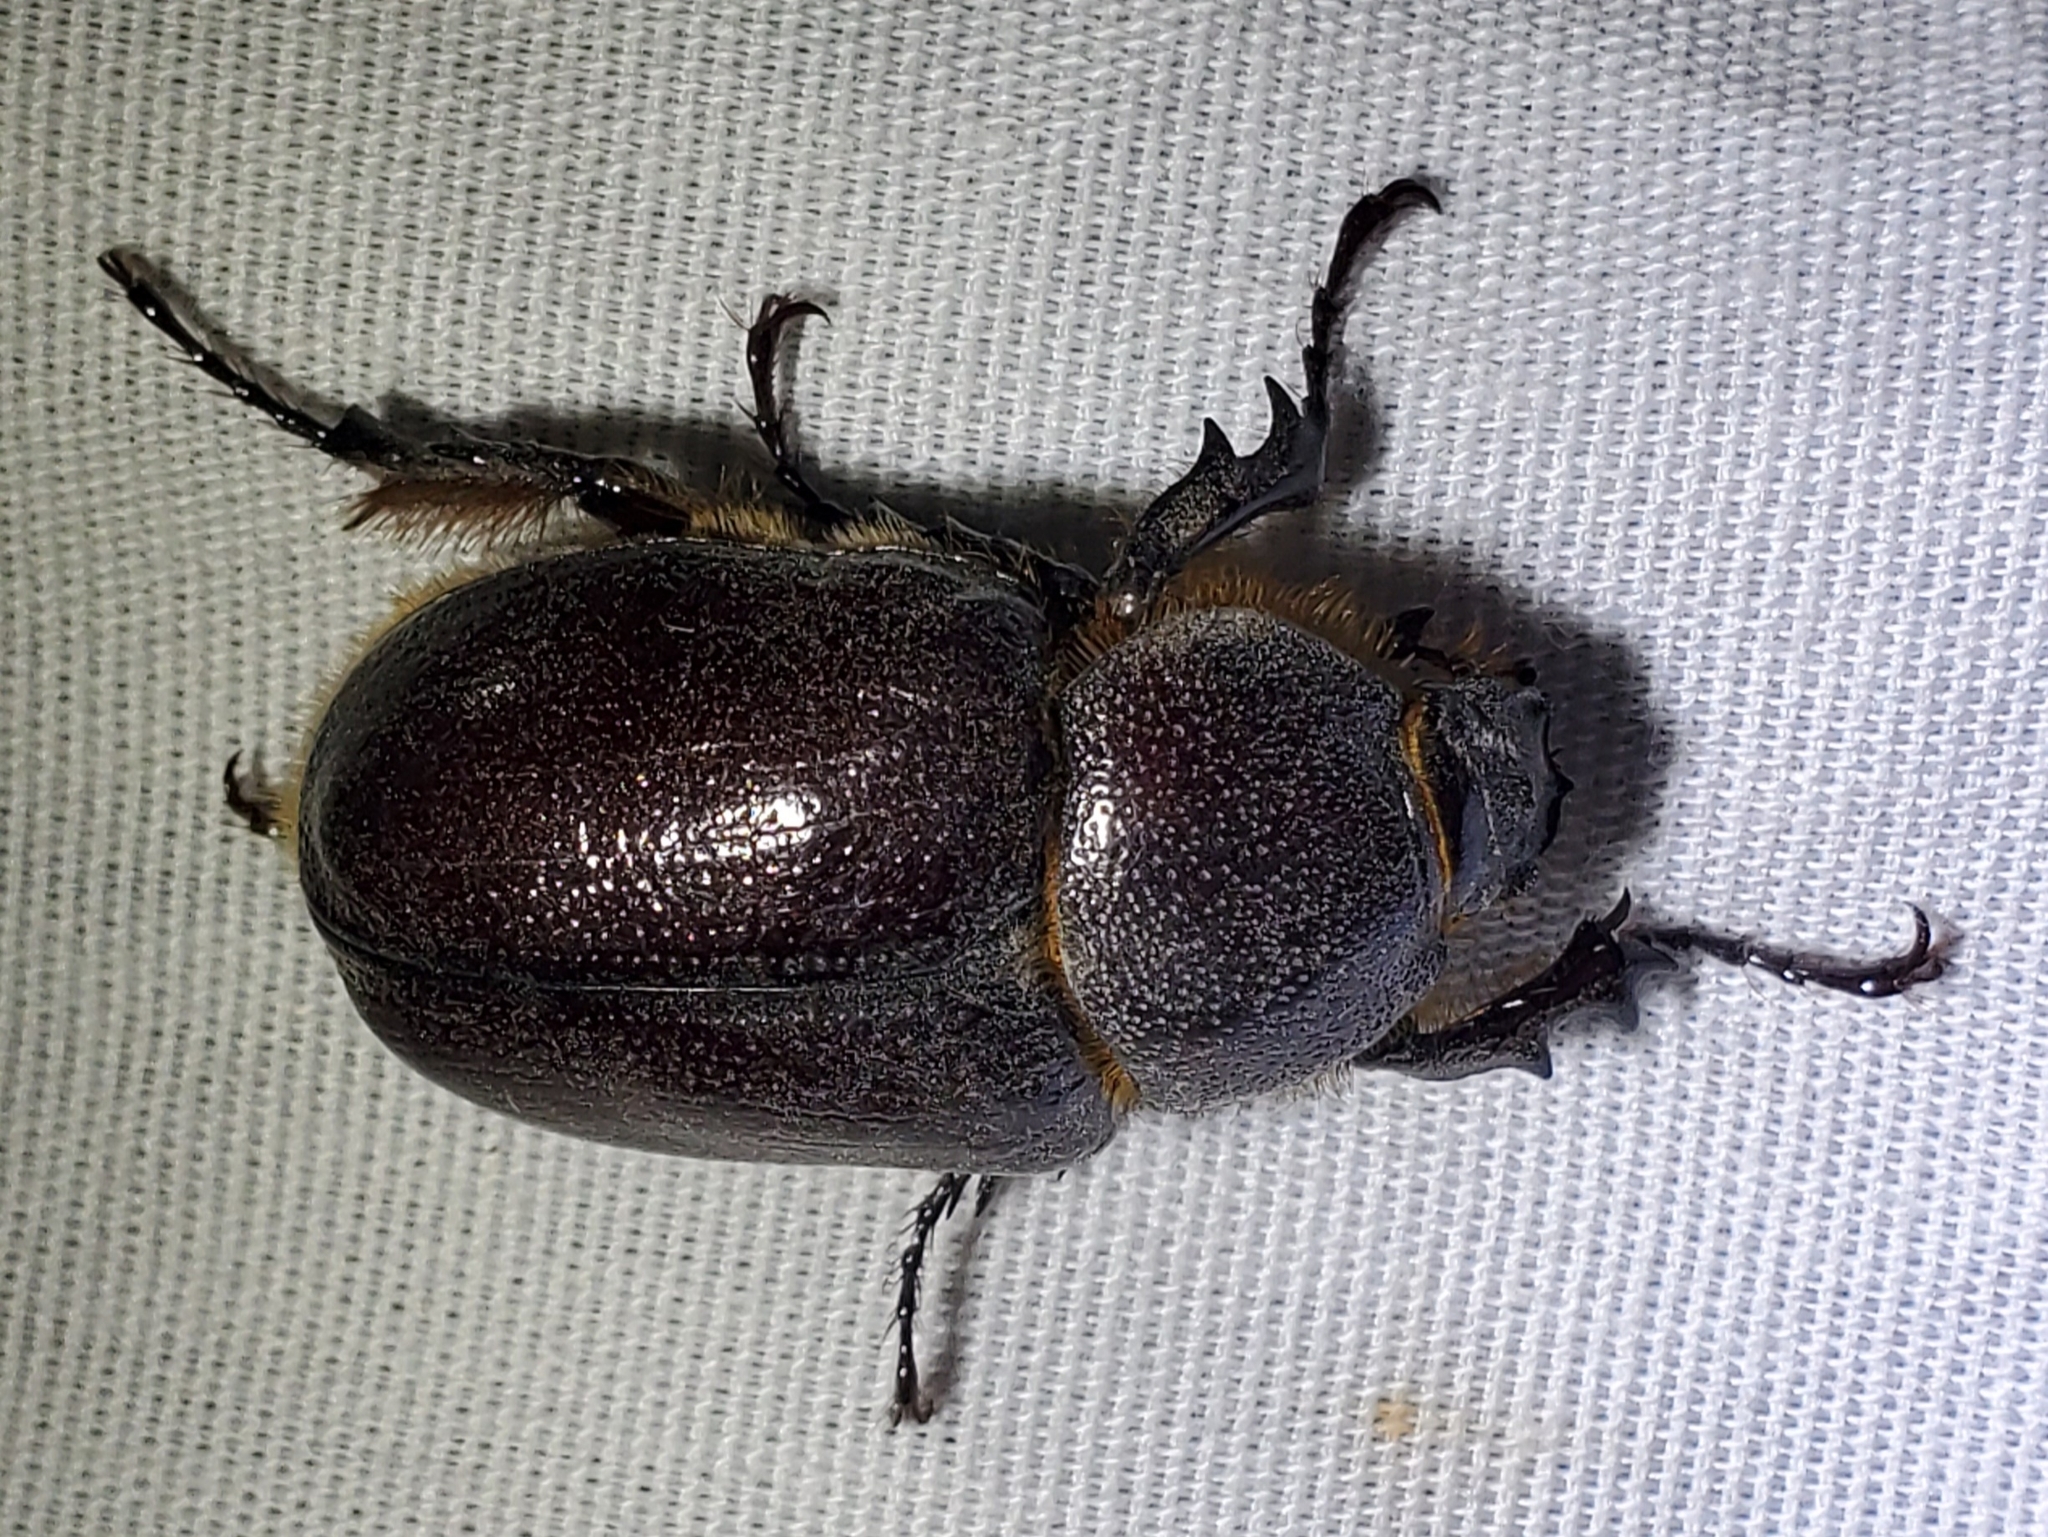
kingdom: Animalia
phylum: Arthropoda
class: Insecta
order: Coleoptera
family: Scarabaeidae
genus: Megasoma
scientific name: Megasoma sleeperi
